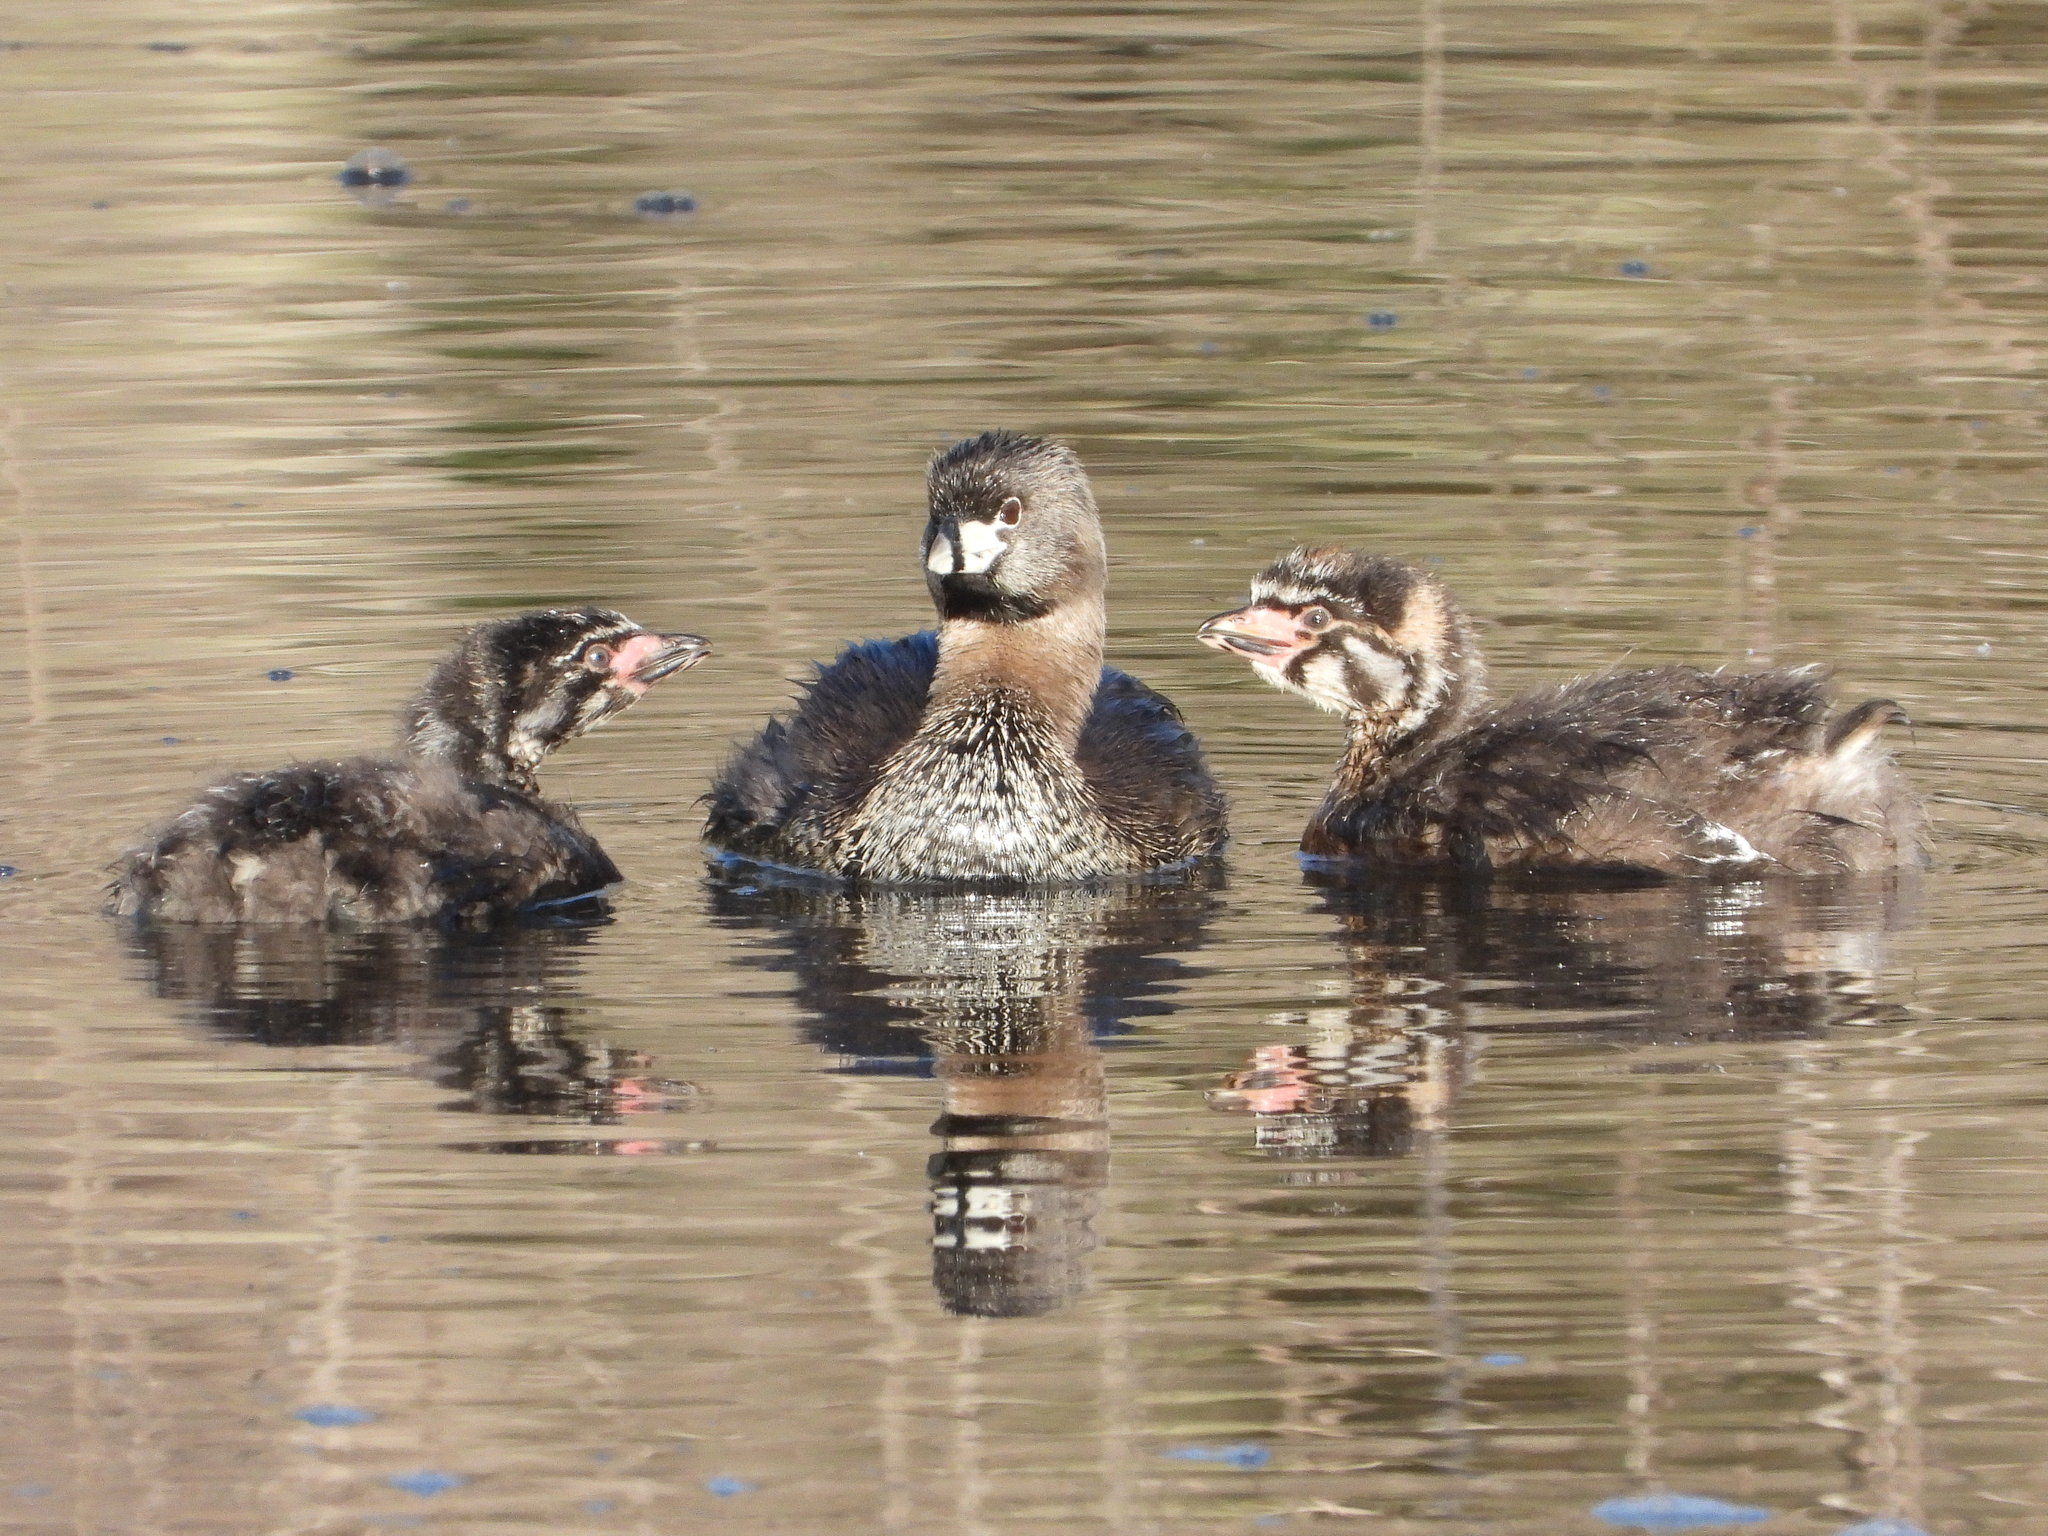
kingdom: Animalia
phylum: Chordata
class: Aves
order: Podicipediformes
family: Podicipedidae
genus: Podilymbus
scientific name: Podilymbus podiceps
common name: Pied-billed grebe
